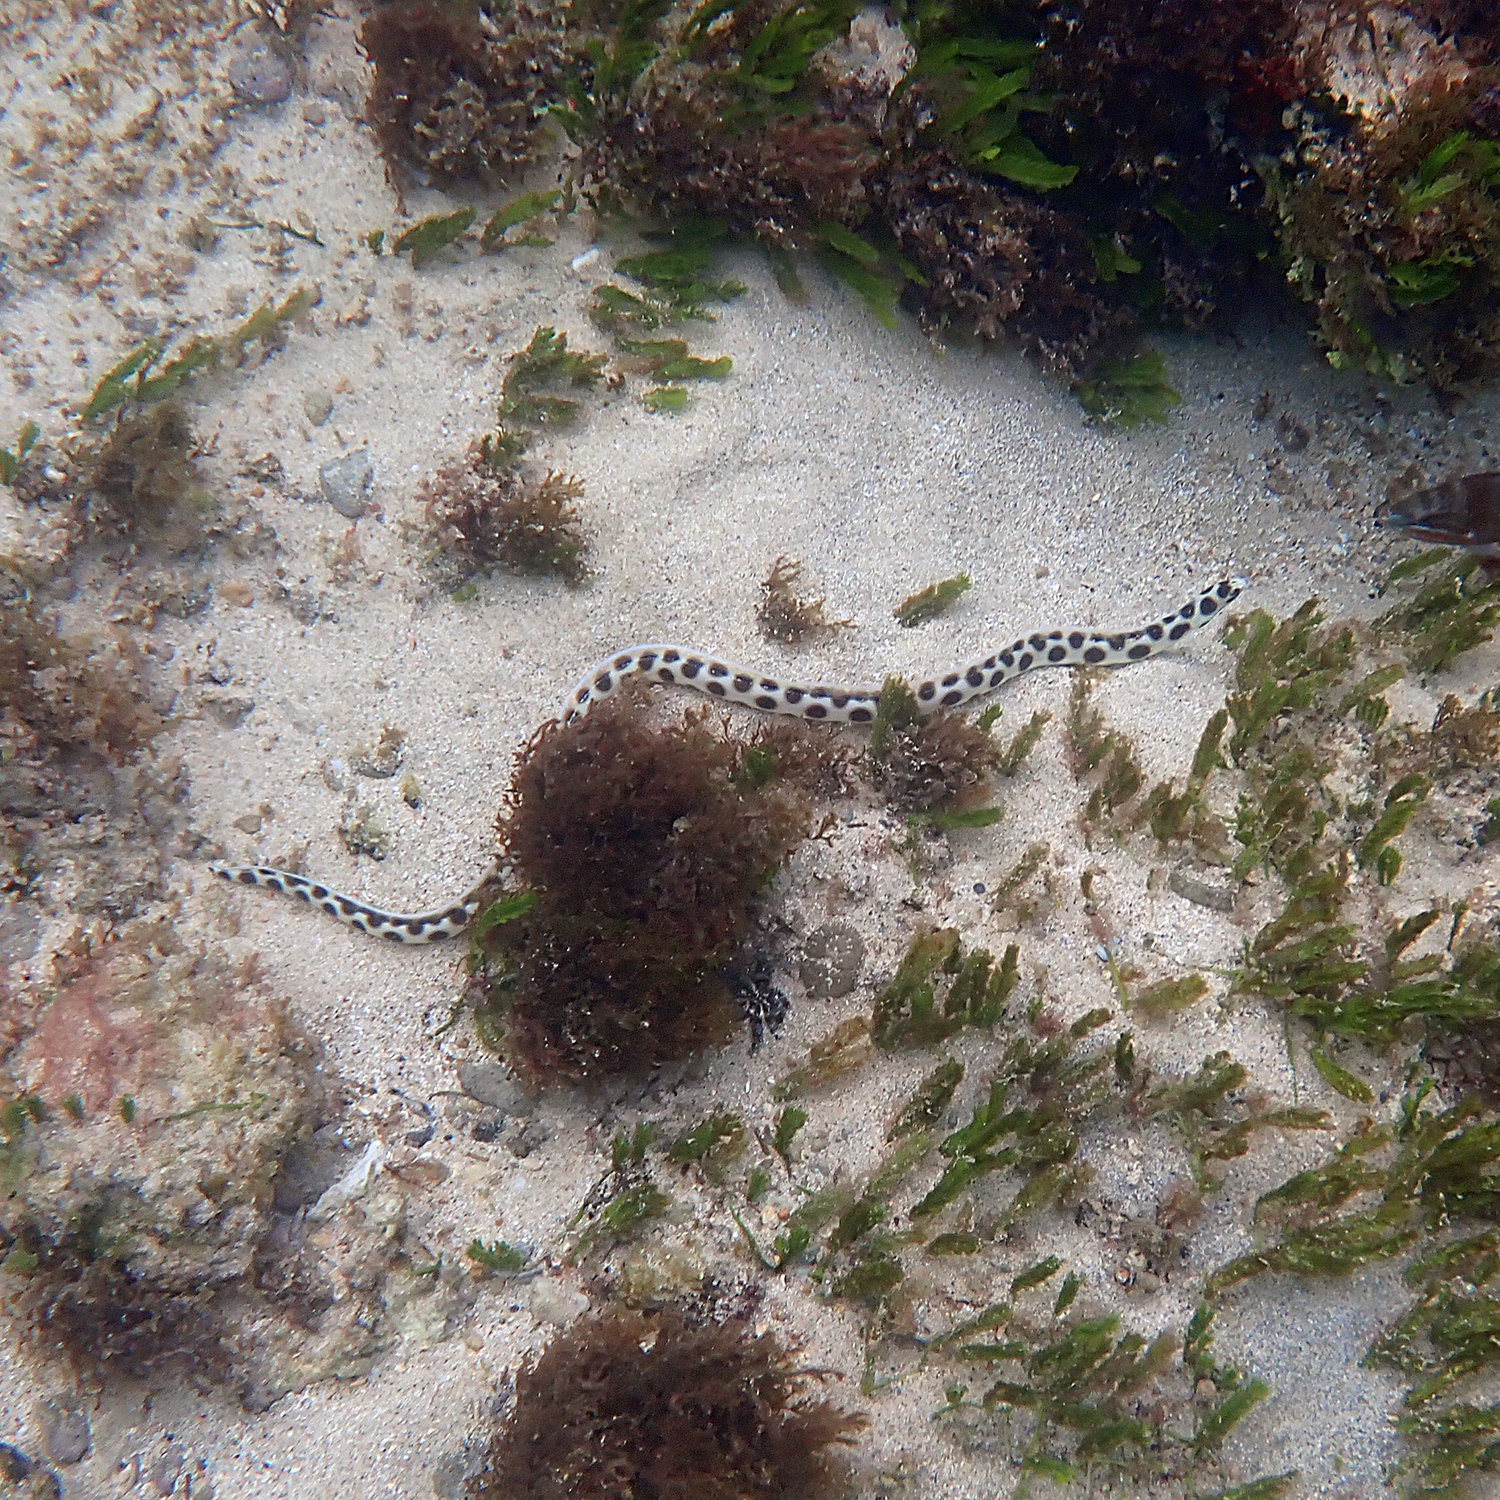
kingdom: Animalia
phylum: Chordata
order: Anguilliformes
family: Ophichthidae
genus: Myrichthys
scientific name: Myrichthys maculosus
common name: Spotted snake eel
